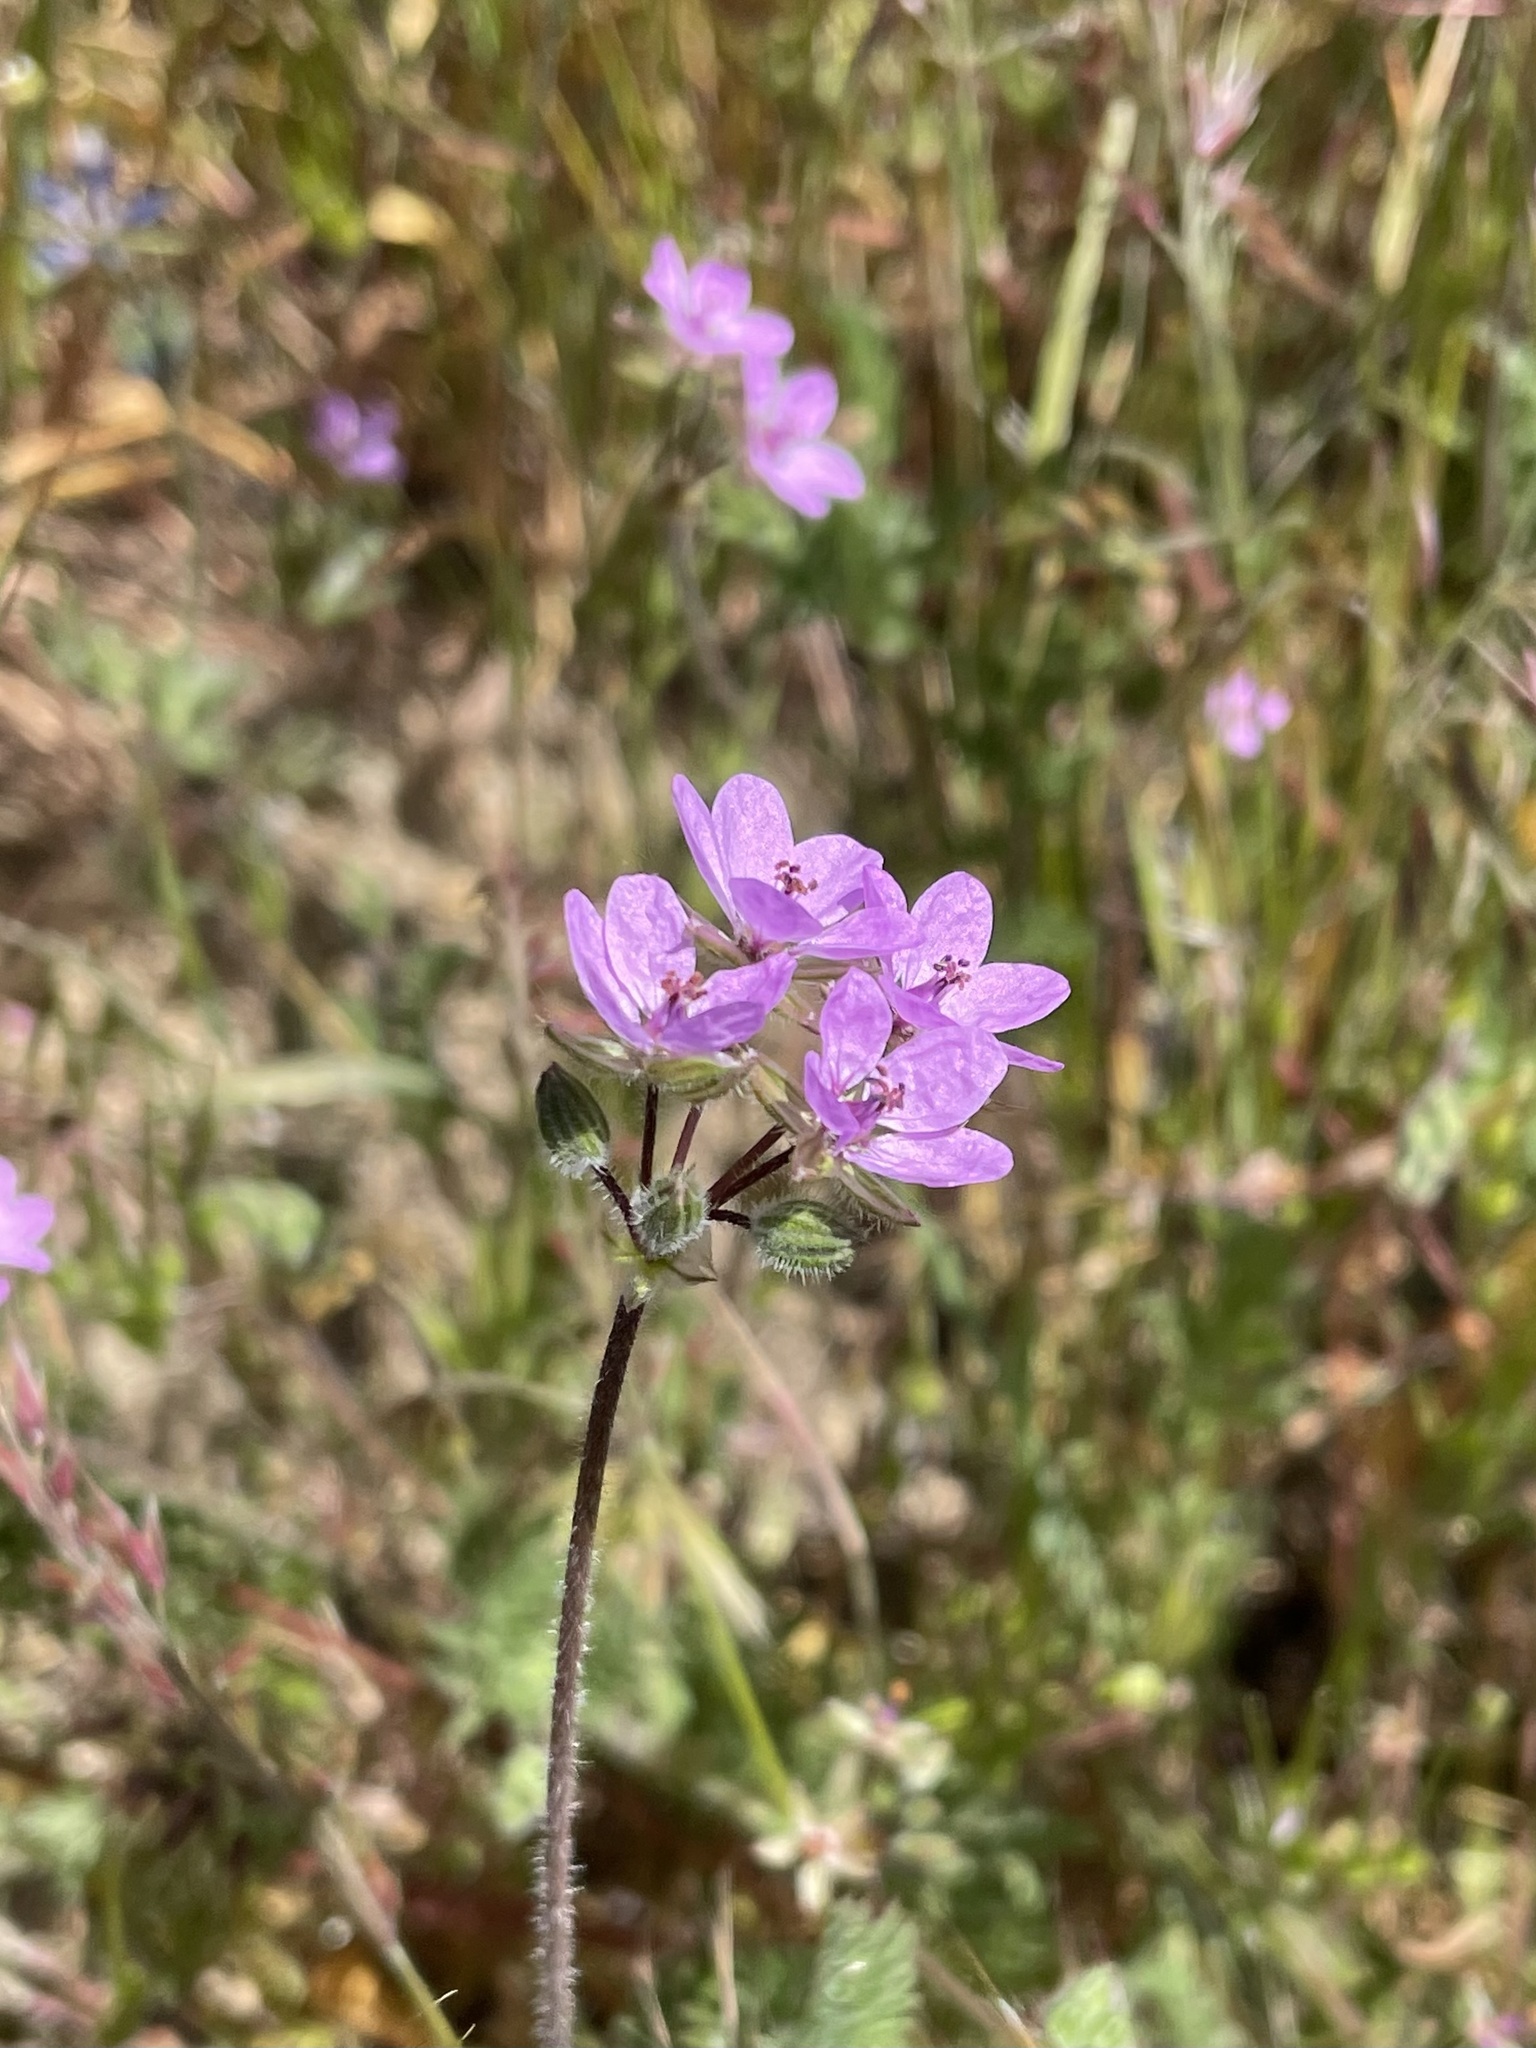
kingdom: Plantae
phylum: Tracheophyta
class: Magnoliopsida
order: Geraniales
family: Geraniaceae
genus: Erodium
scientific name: Erodium cicutarium
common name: Common stork's-bill
